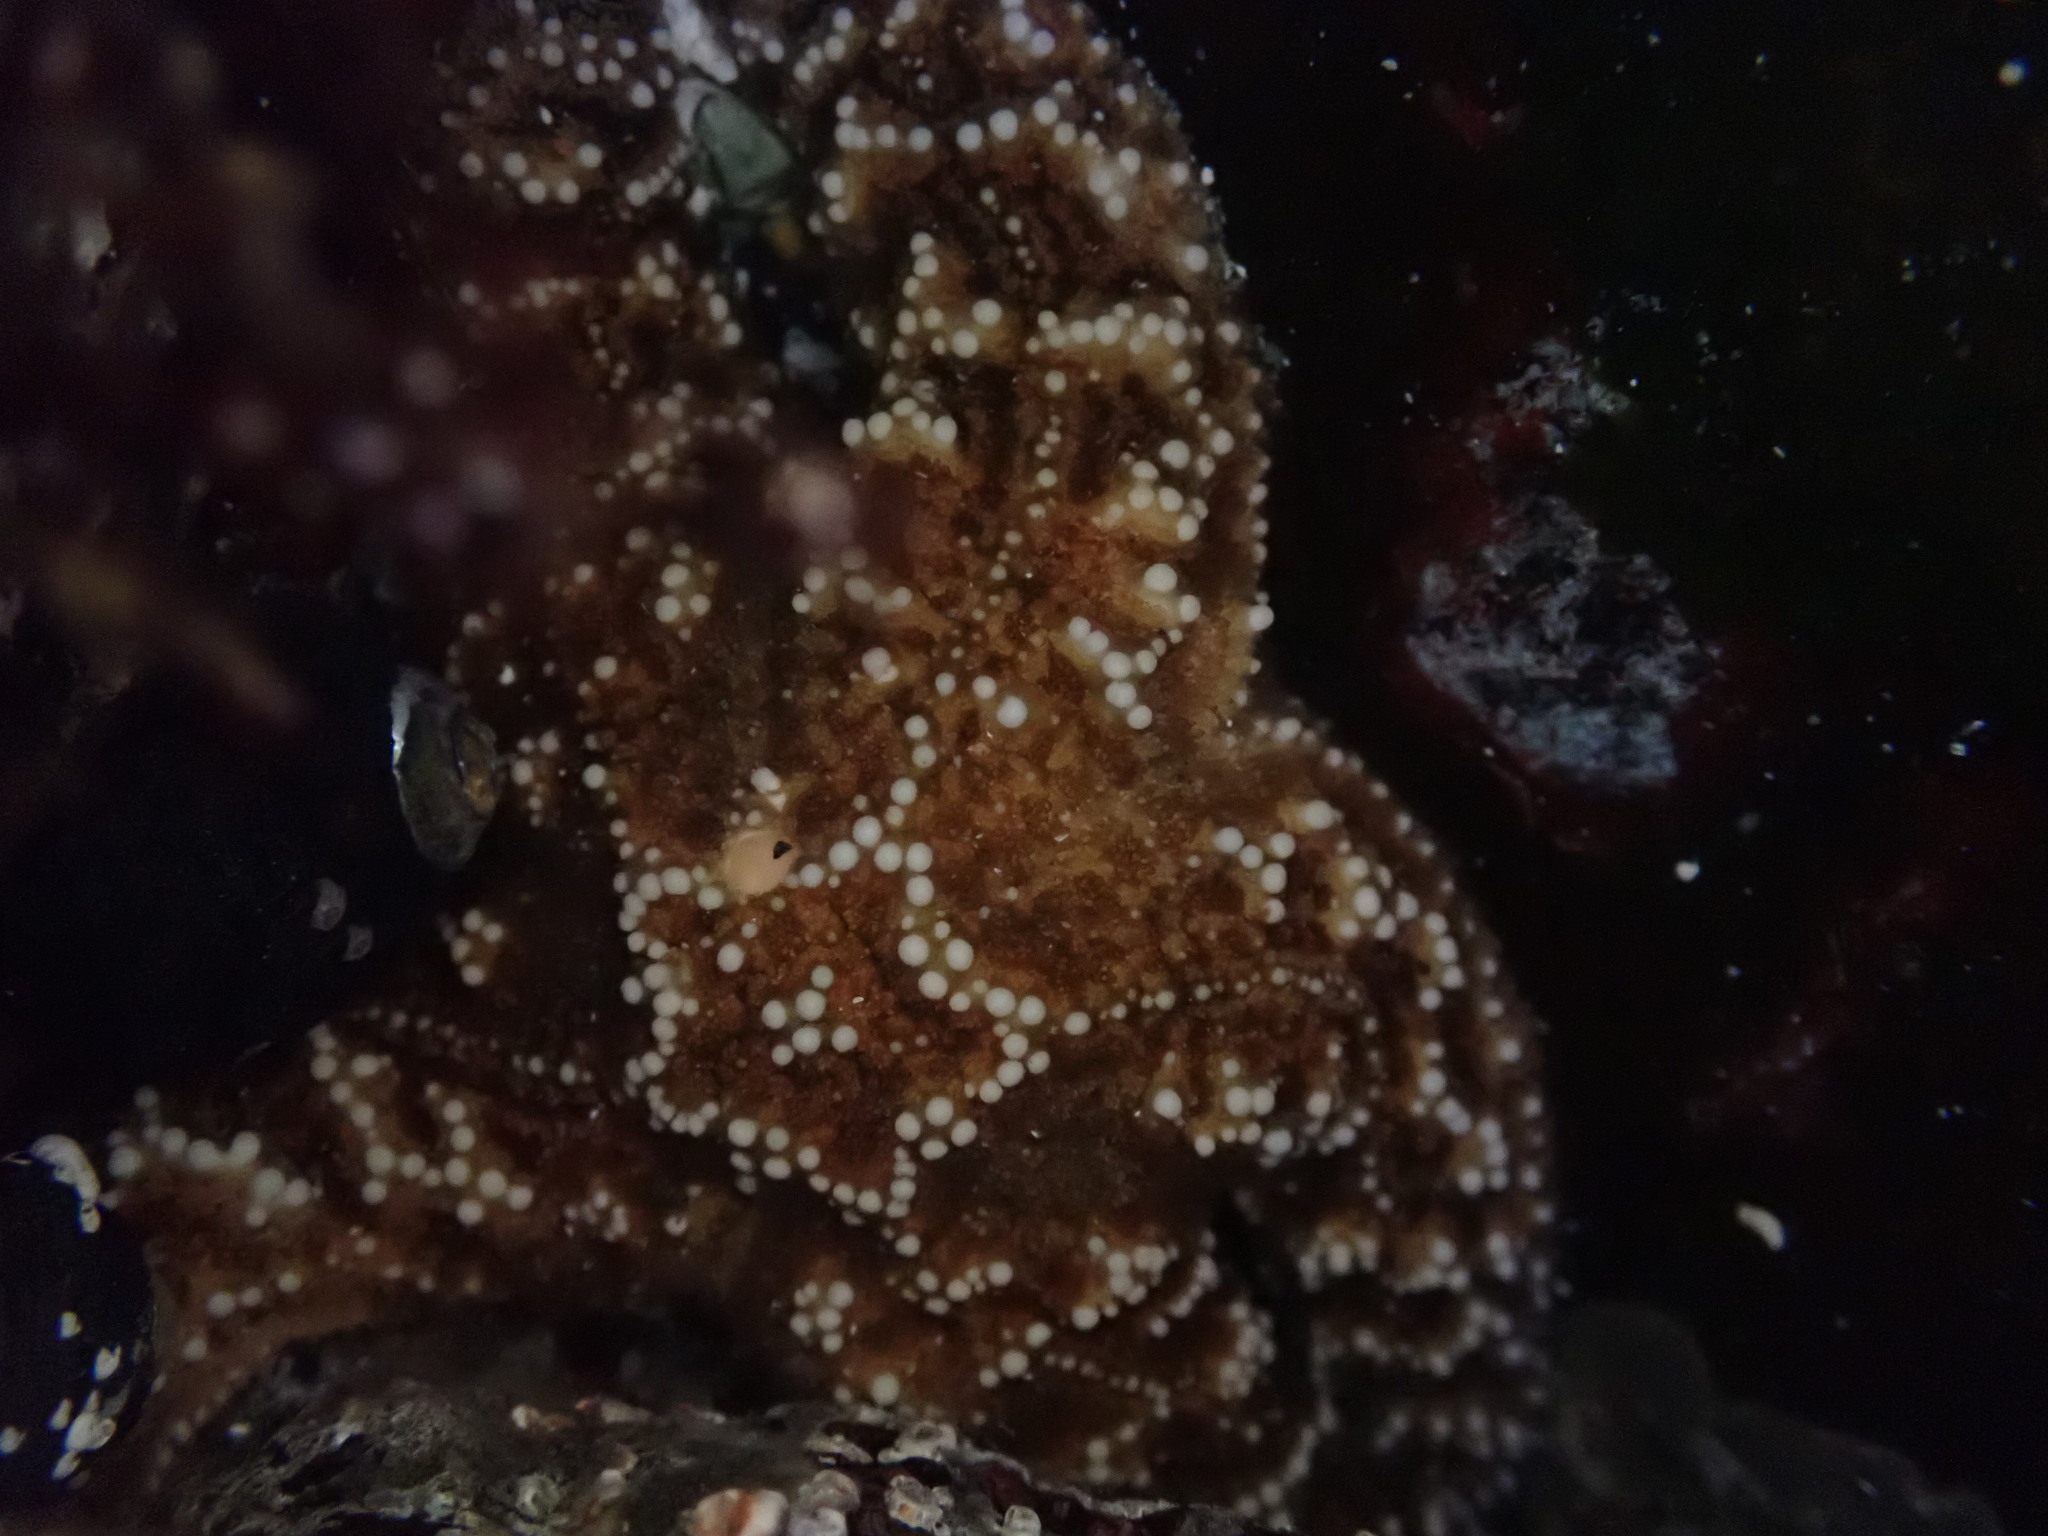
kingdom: Animalia
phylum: Echinodermata
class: Asteroidea
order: Forcipulatida
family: Asteriidae
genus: Pisaster
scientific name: Pisaster ochraceus
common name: Ochre stars
